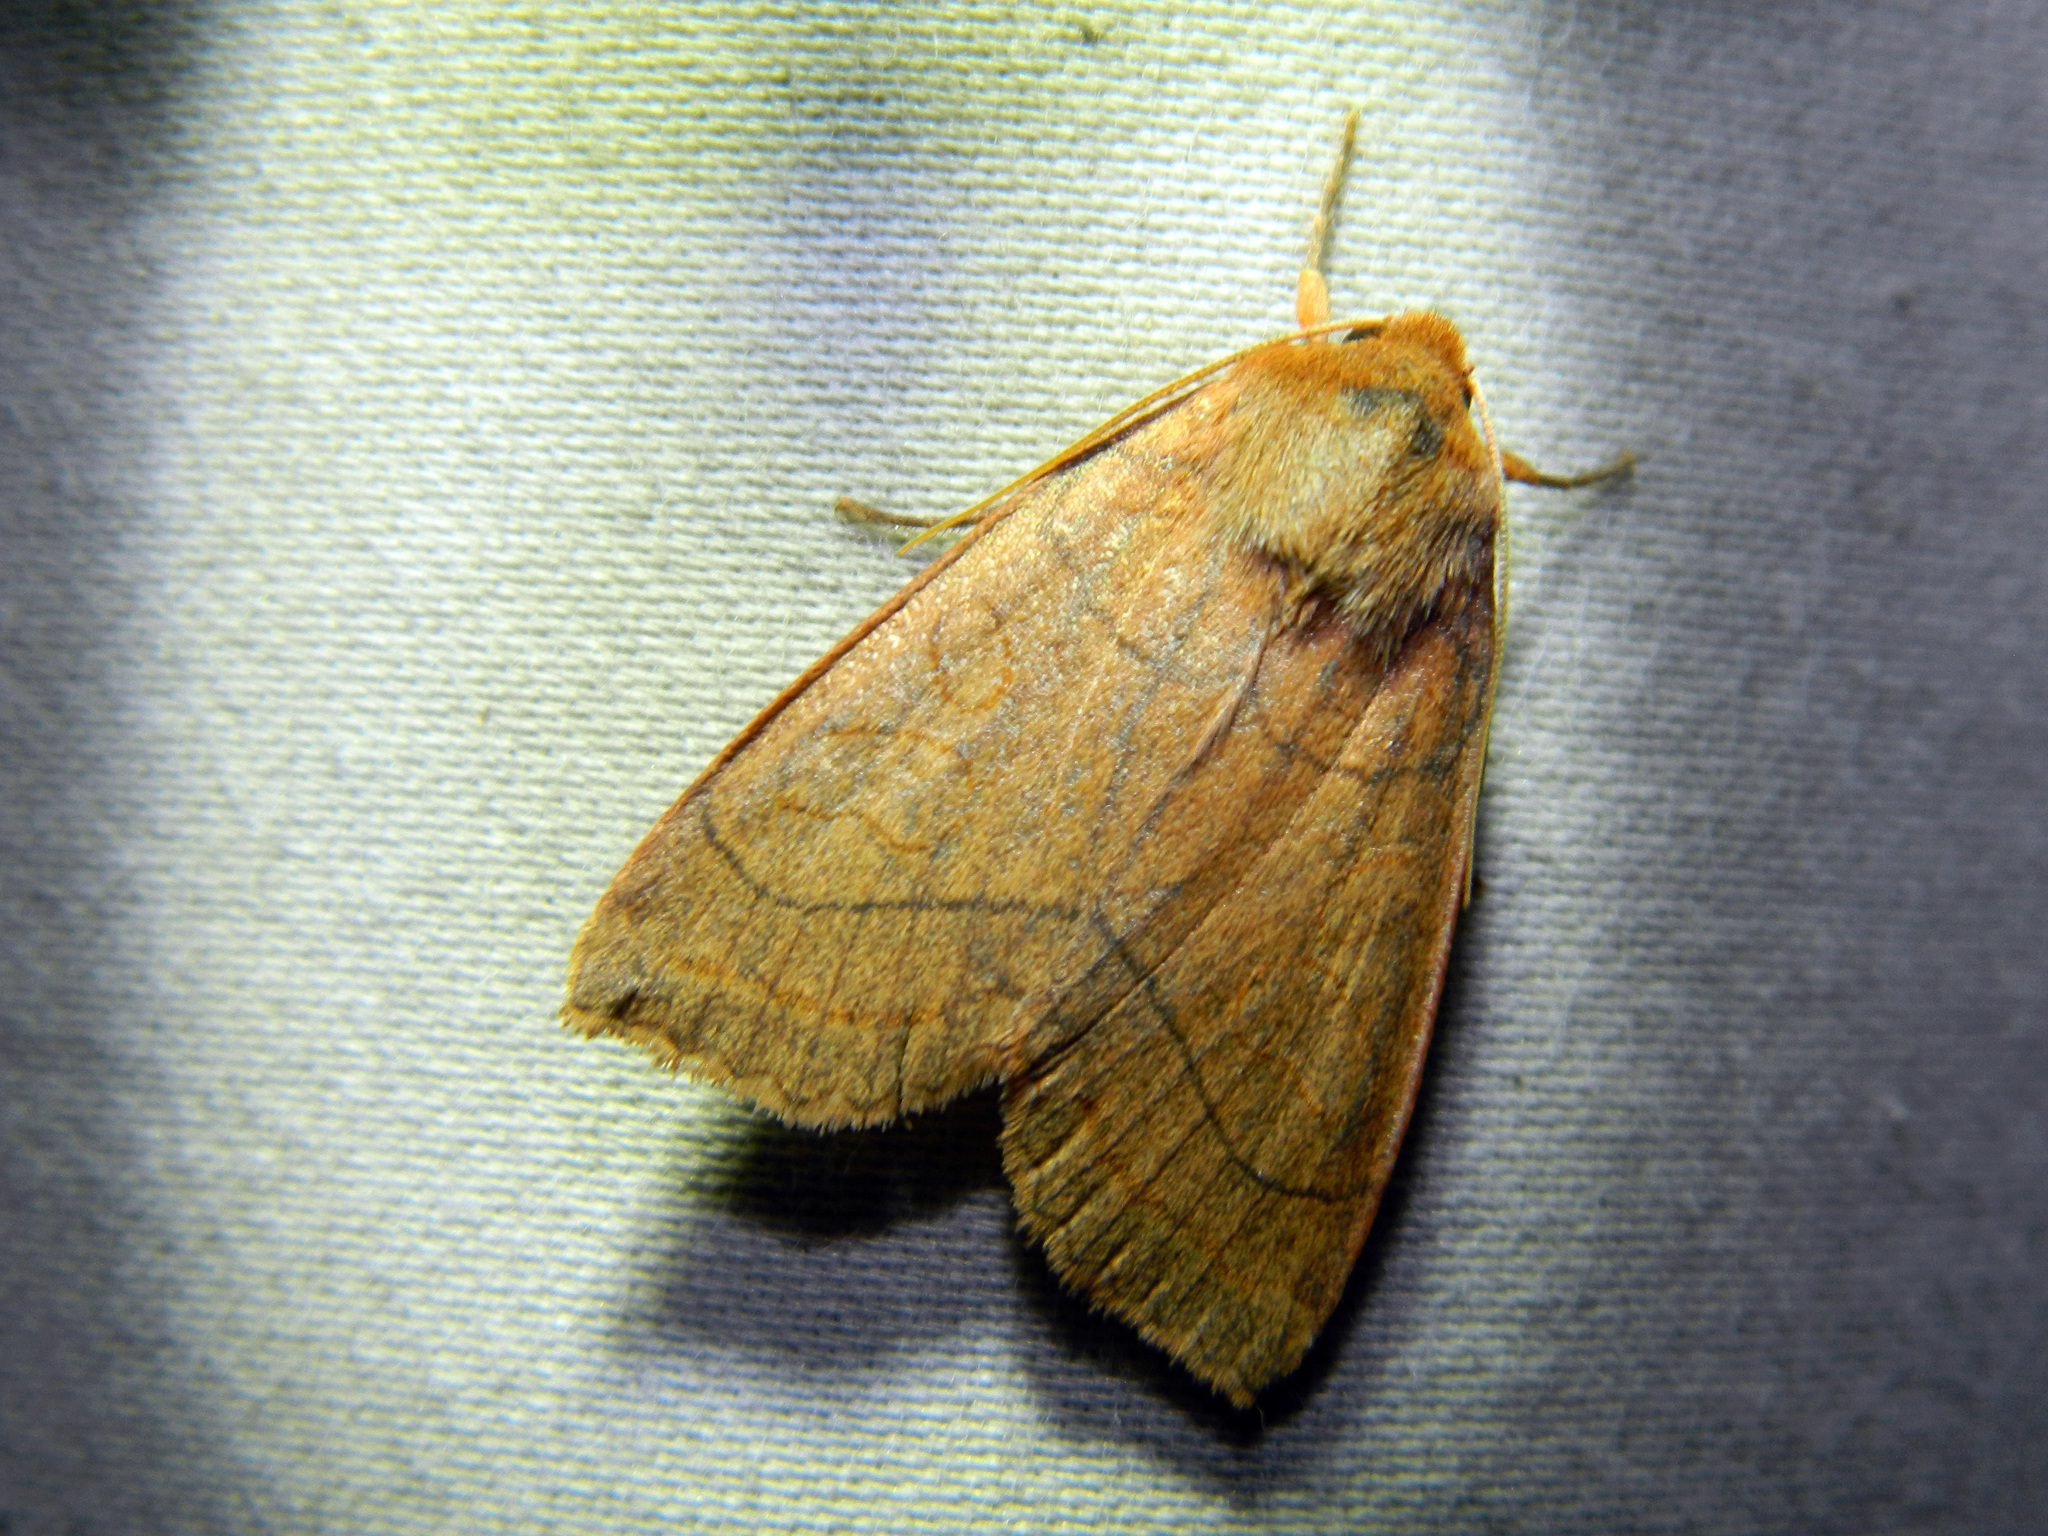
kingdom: Animalia
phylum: Arthropoda
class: Insecta
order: Lepidoptera
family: Noctuidae
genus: Metaxaglaea
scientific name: Metaxaglaea inulta
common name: Unsated sallow
